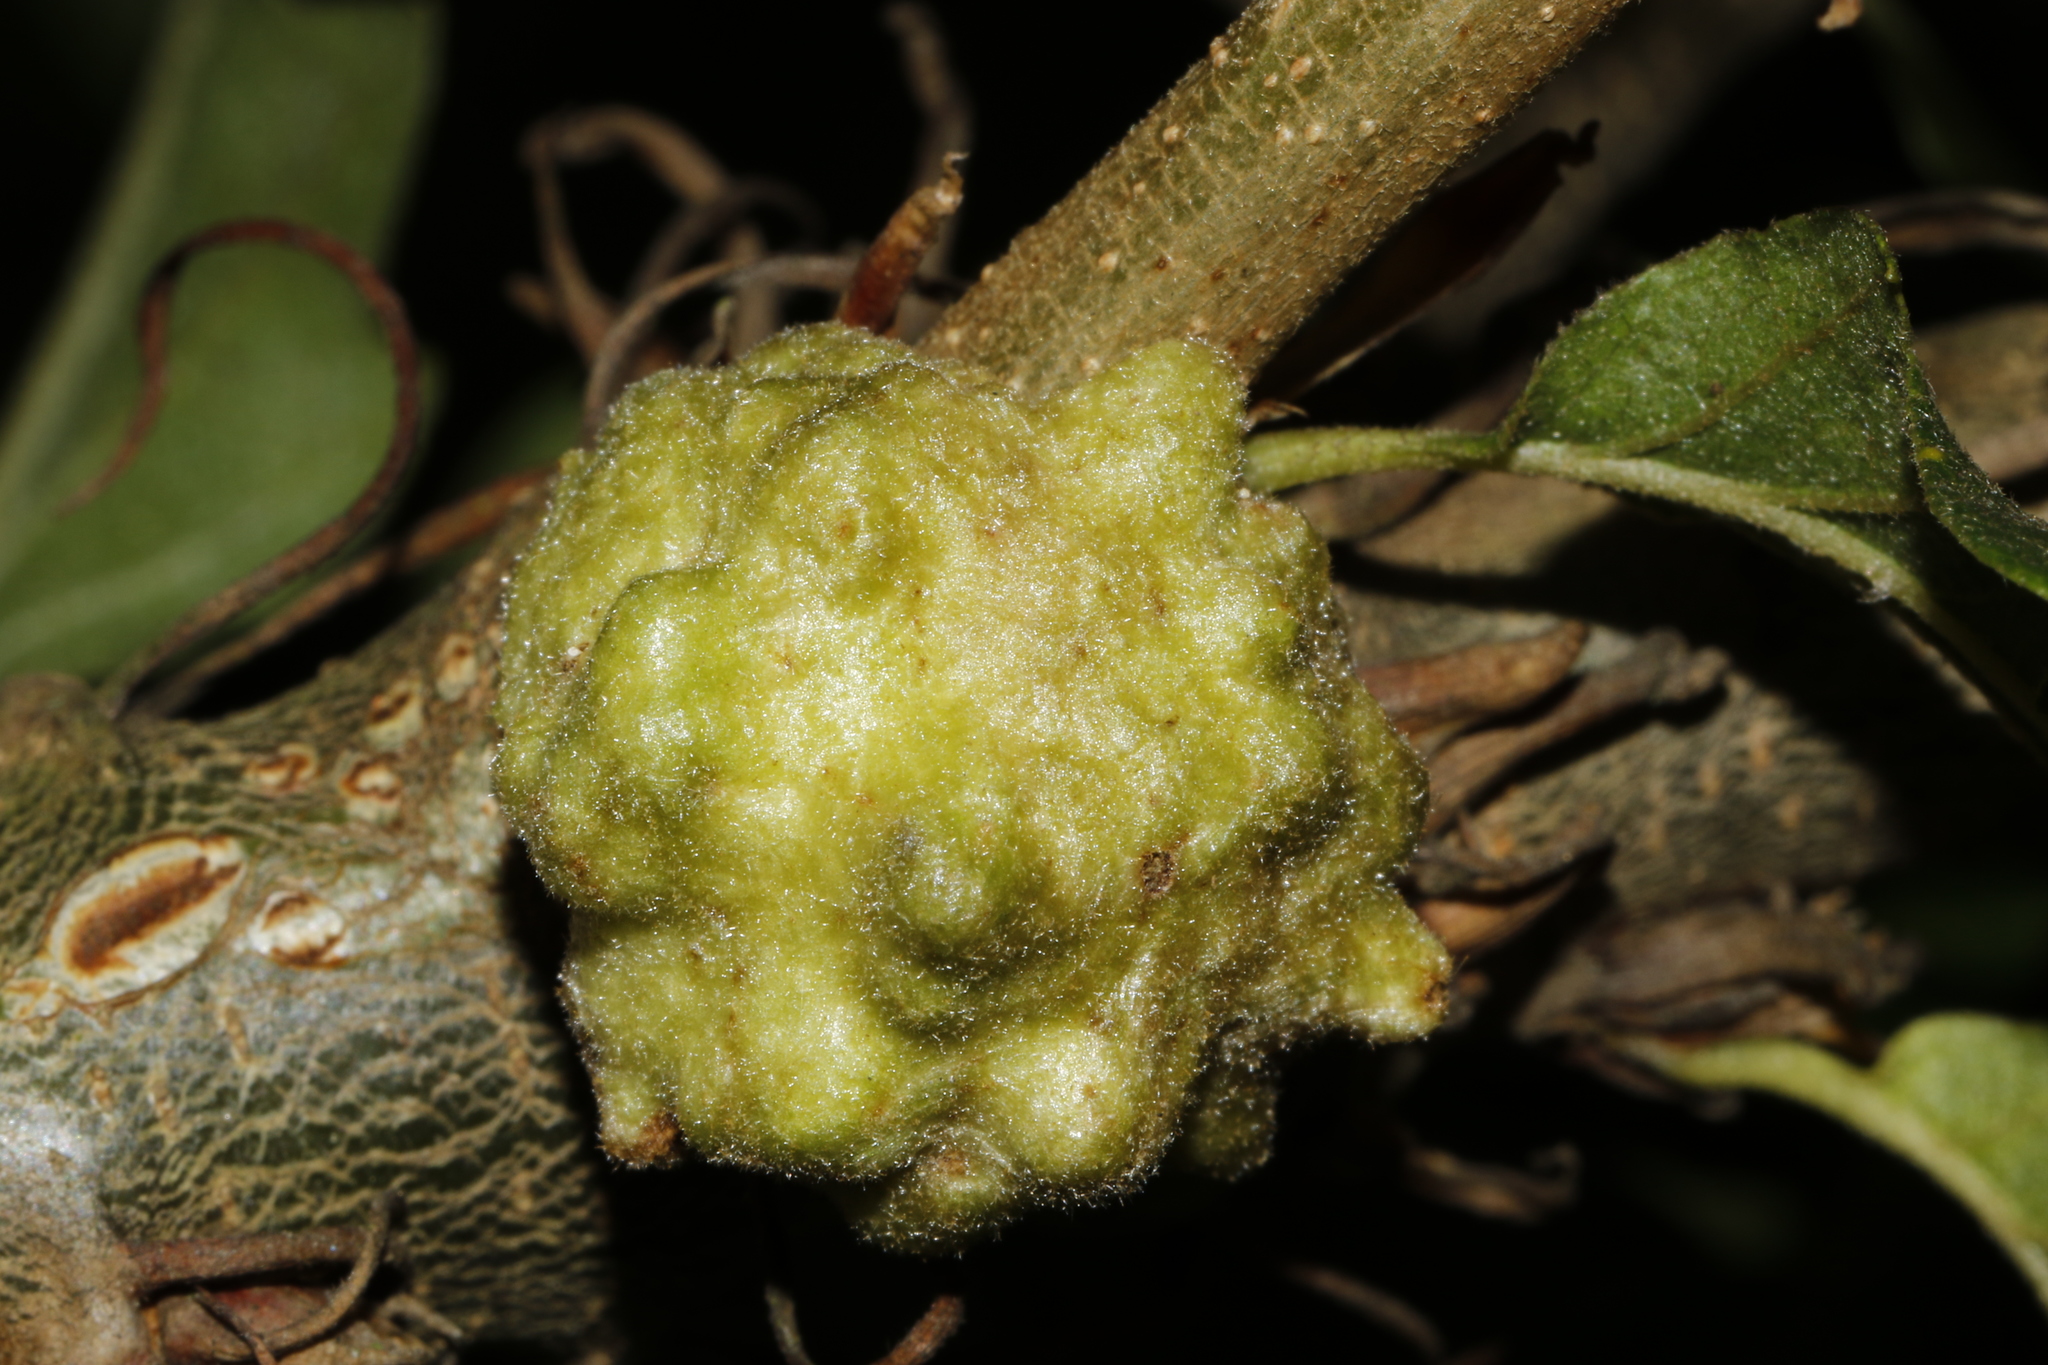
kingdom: Animalia
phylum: Arthropoda
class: Insecta
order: Hymenoptera
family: Cynipidae
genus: Andricus
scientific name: Andricus quercuscalicis
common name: Knopper gall
